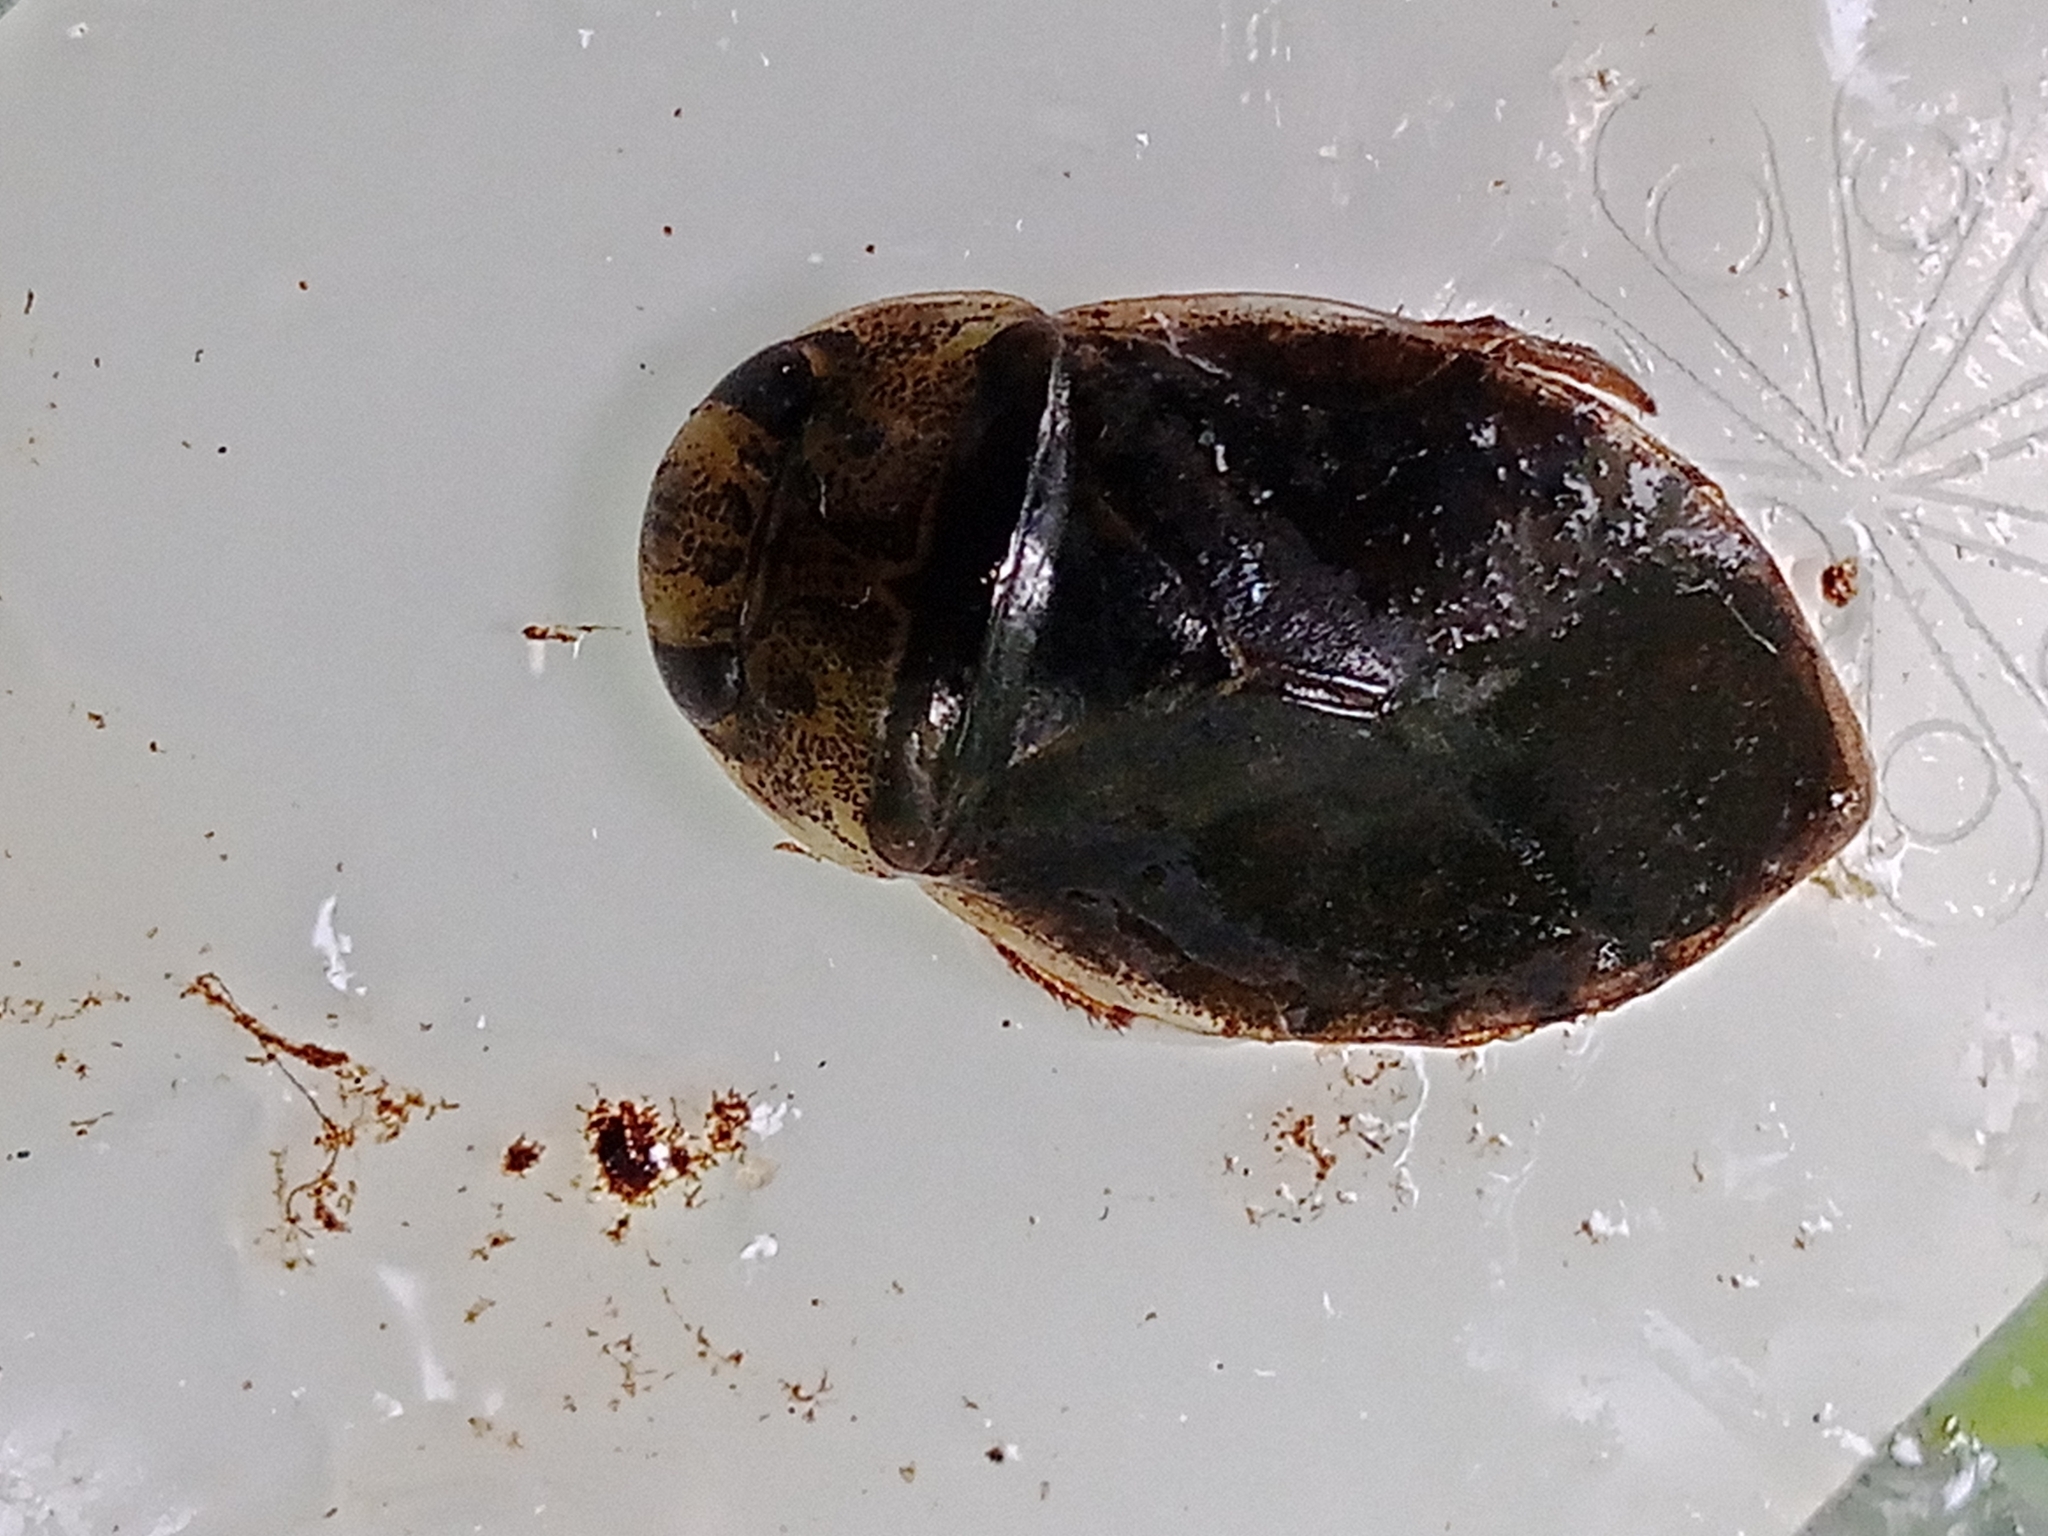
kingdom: Animalia
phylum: Arthropoda
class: Insecta
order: Hemiptera
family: Naucoridae
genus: Ilyocoris
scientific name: Ilyocoris cimicoides
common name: Saucer bugs
